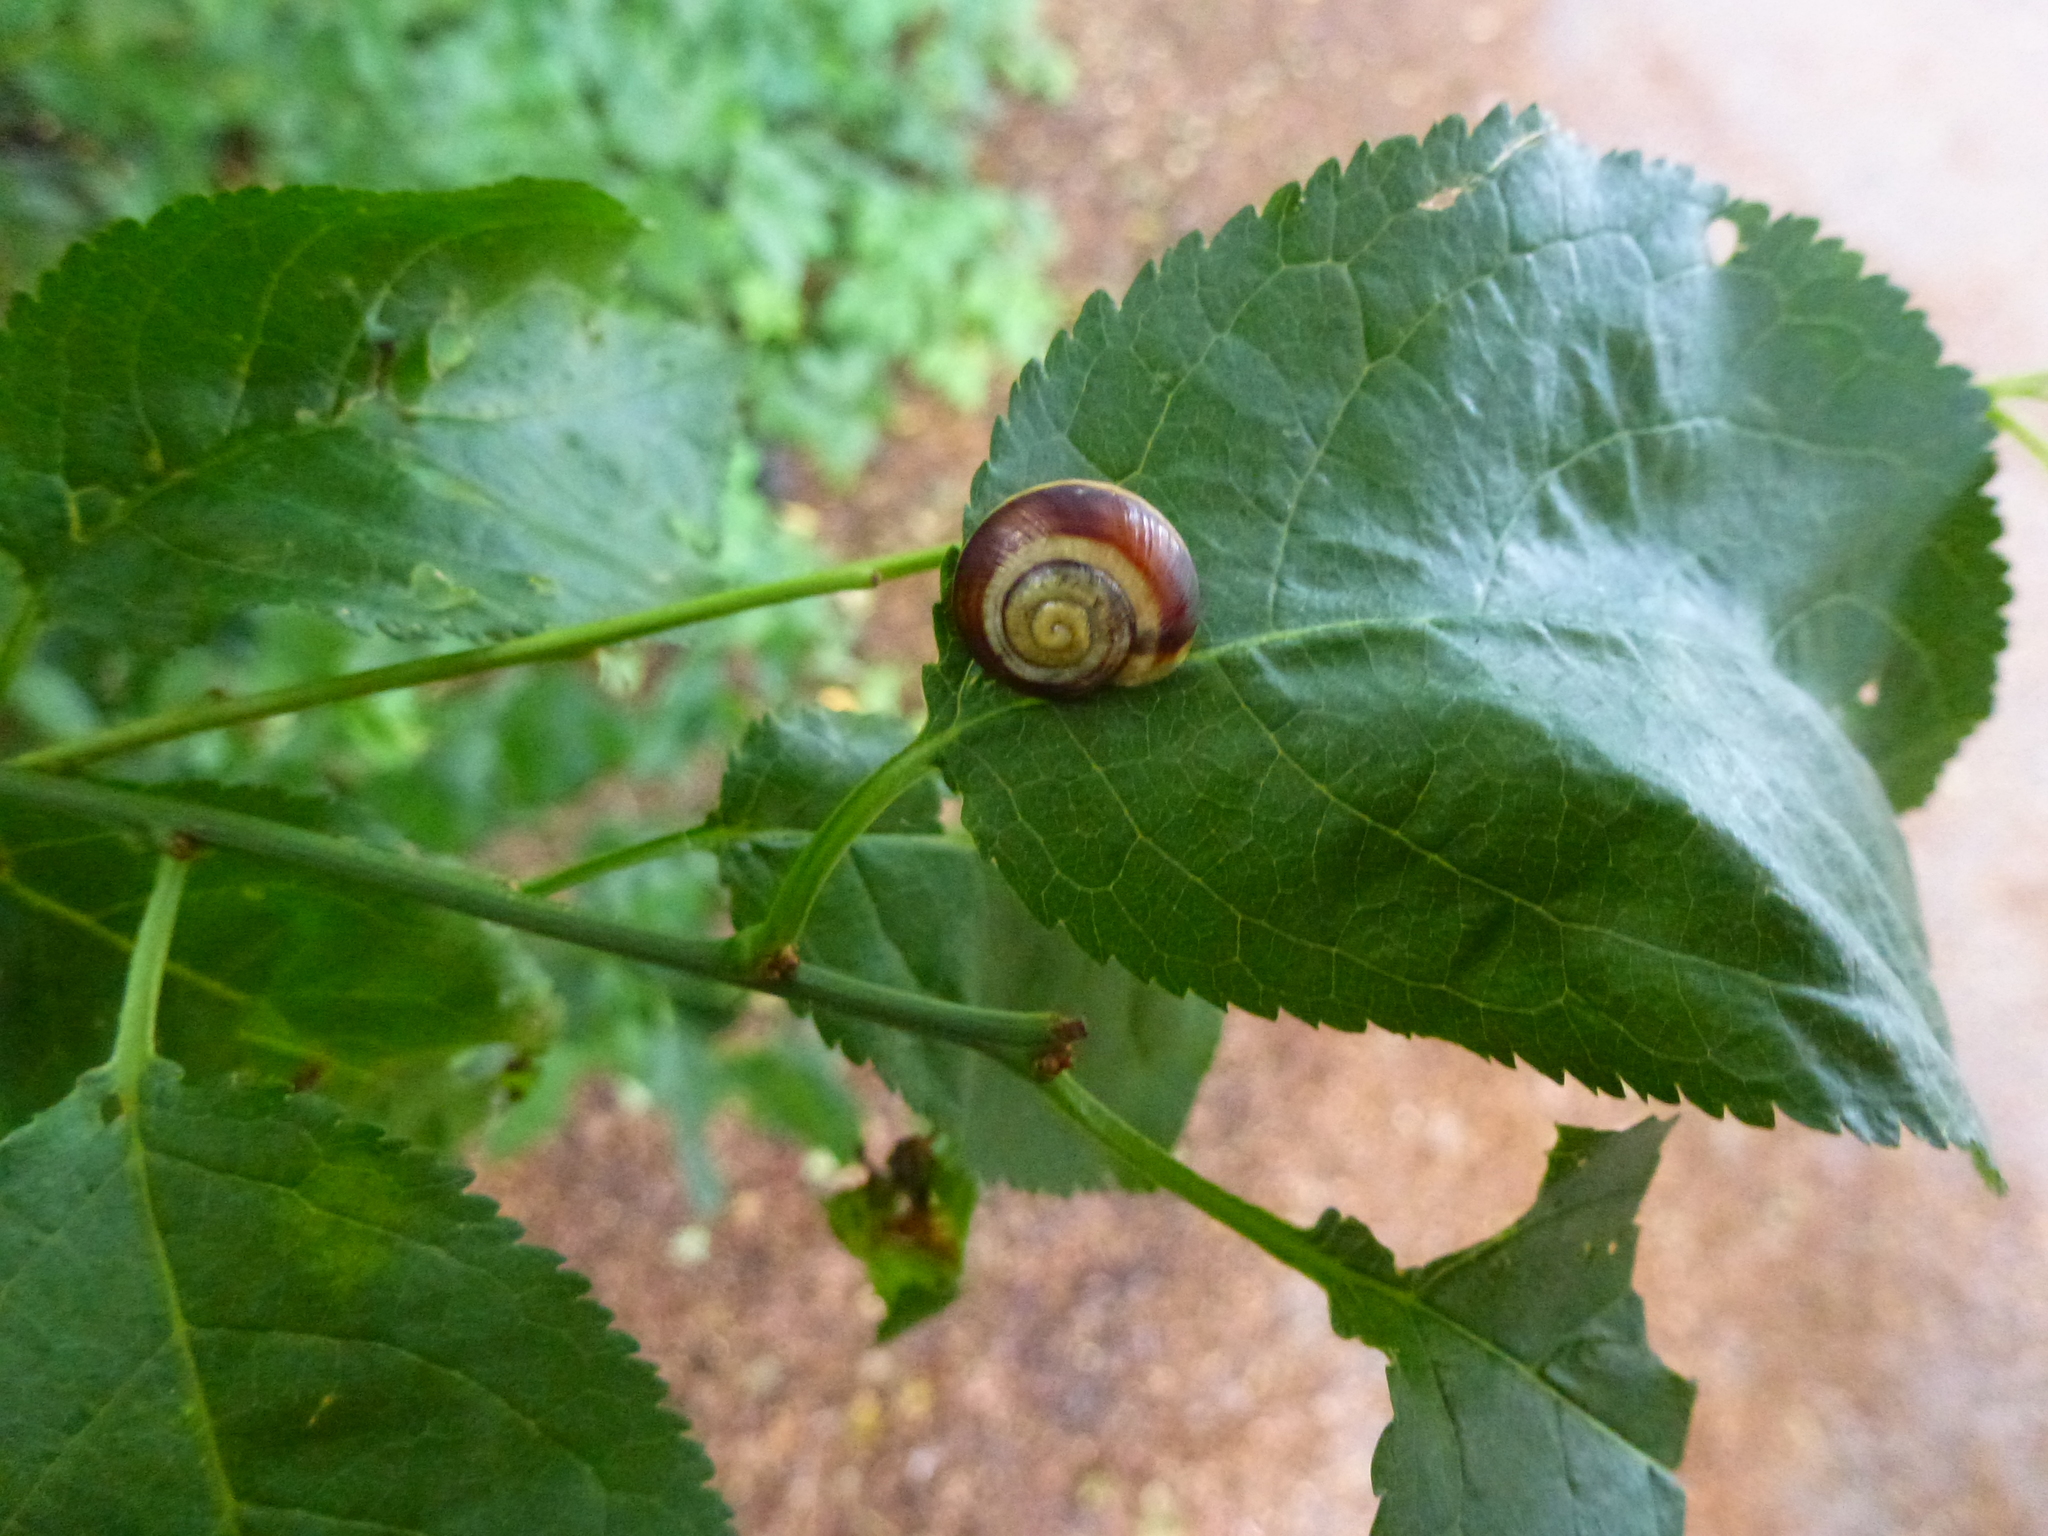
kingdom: Animalia
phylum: Mollusca
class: Gastropoda
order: Stylommatophora
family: Helicidae
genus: Cepaea
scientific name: Cepaea
